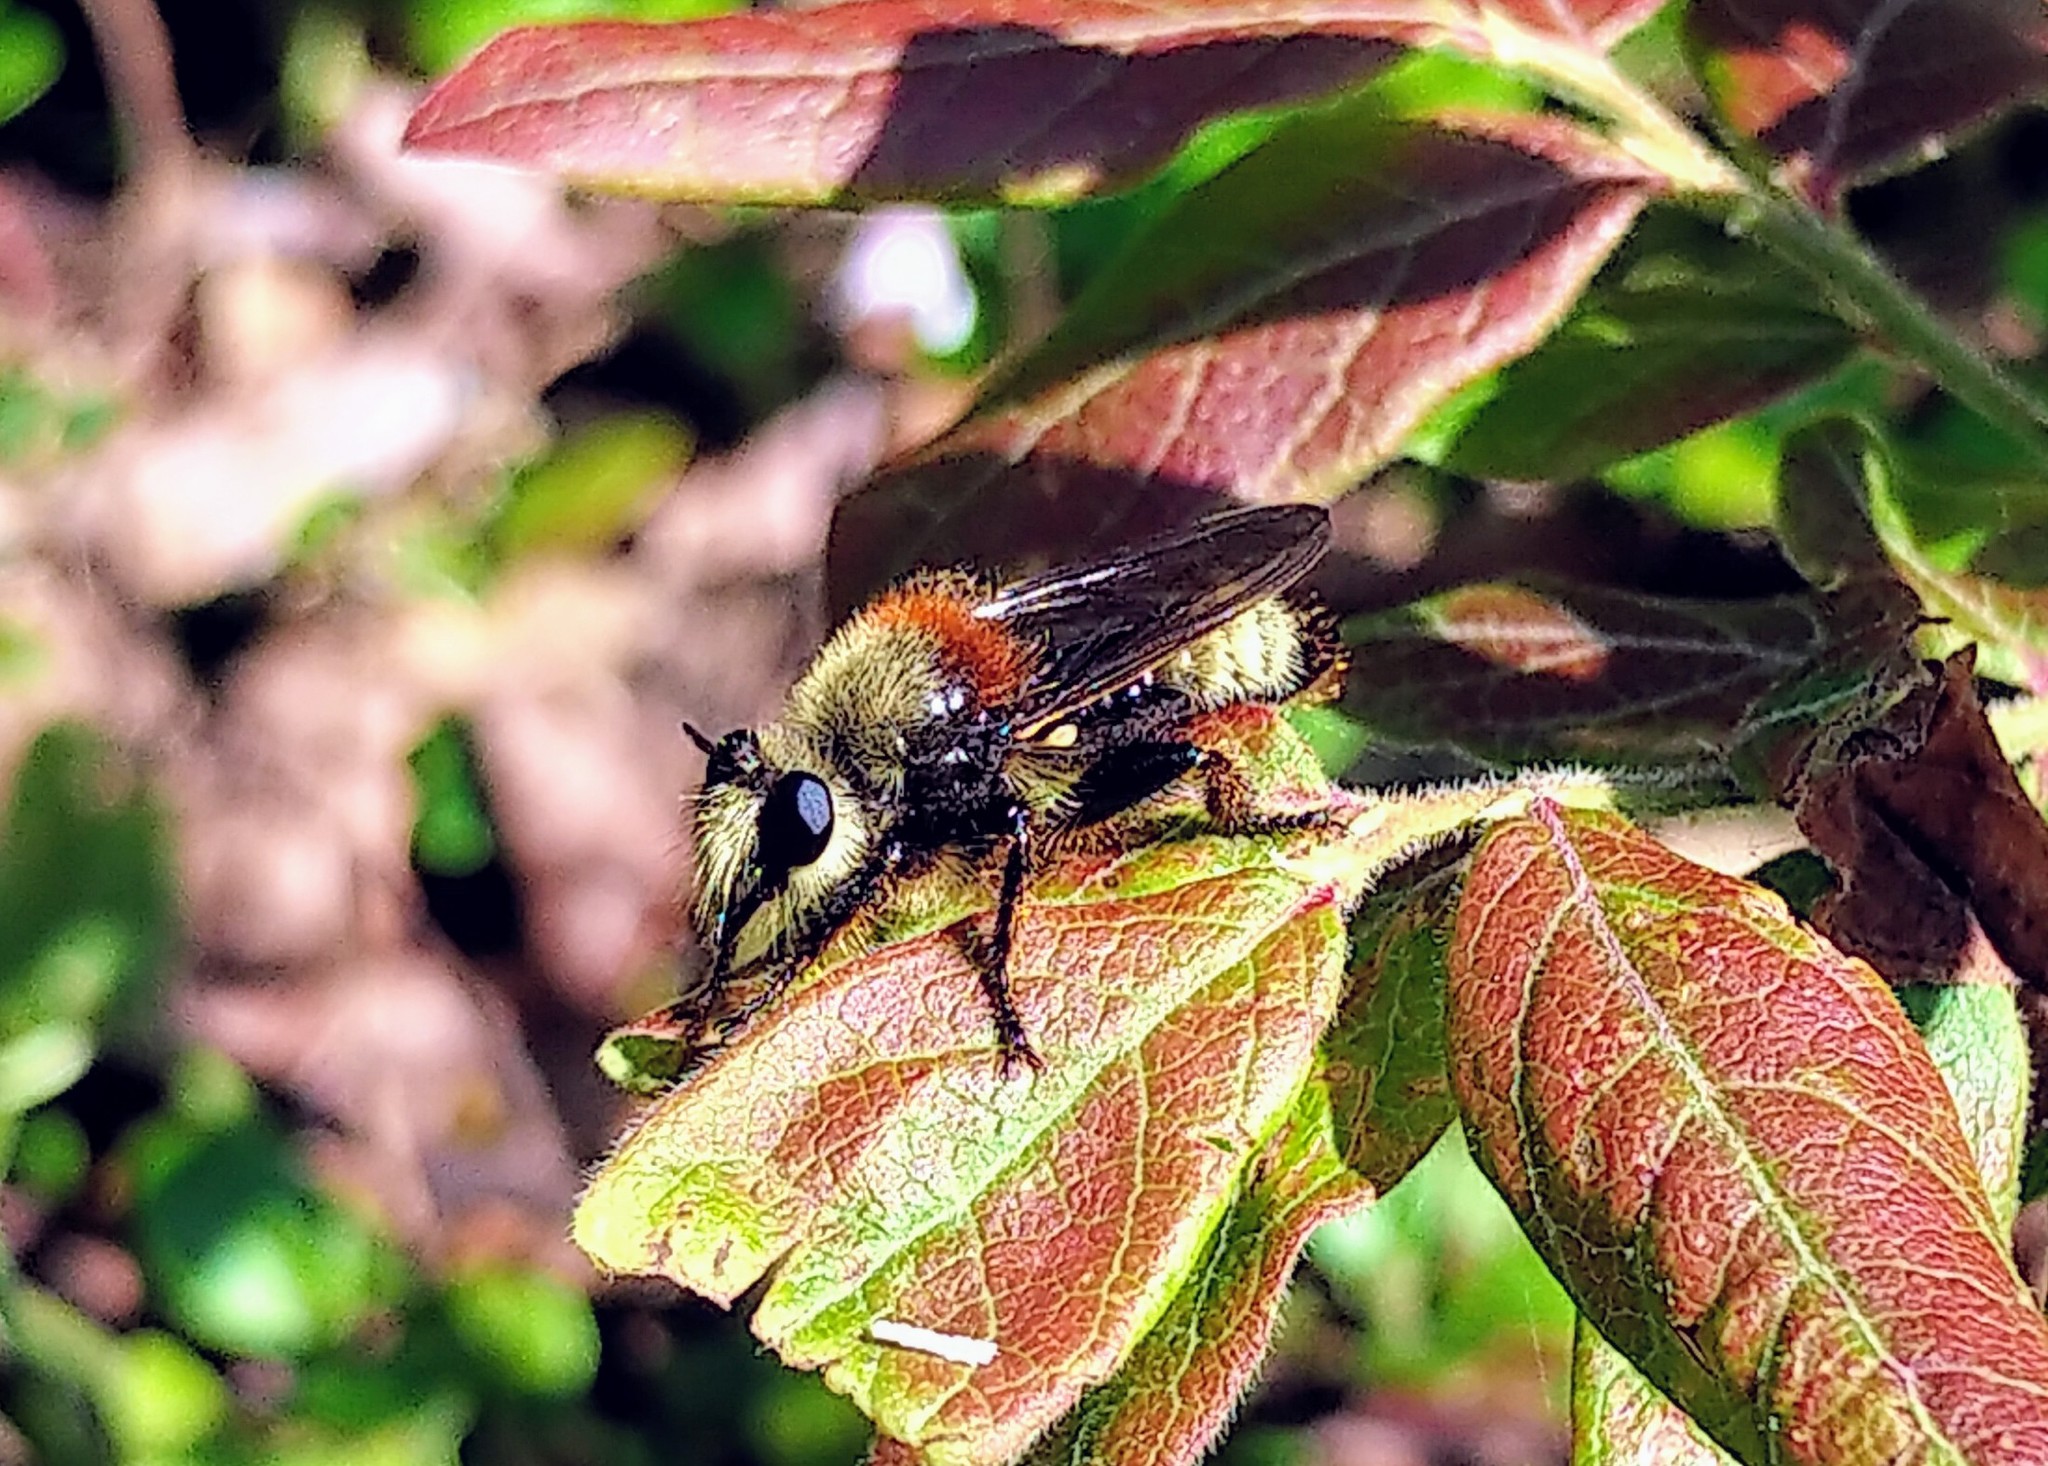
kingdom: Animalia
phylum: Arthropoda
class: Insecta
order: Diptera
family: Asilidae
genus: Laphria
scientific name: Laphria insignis
